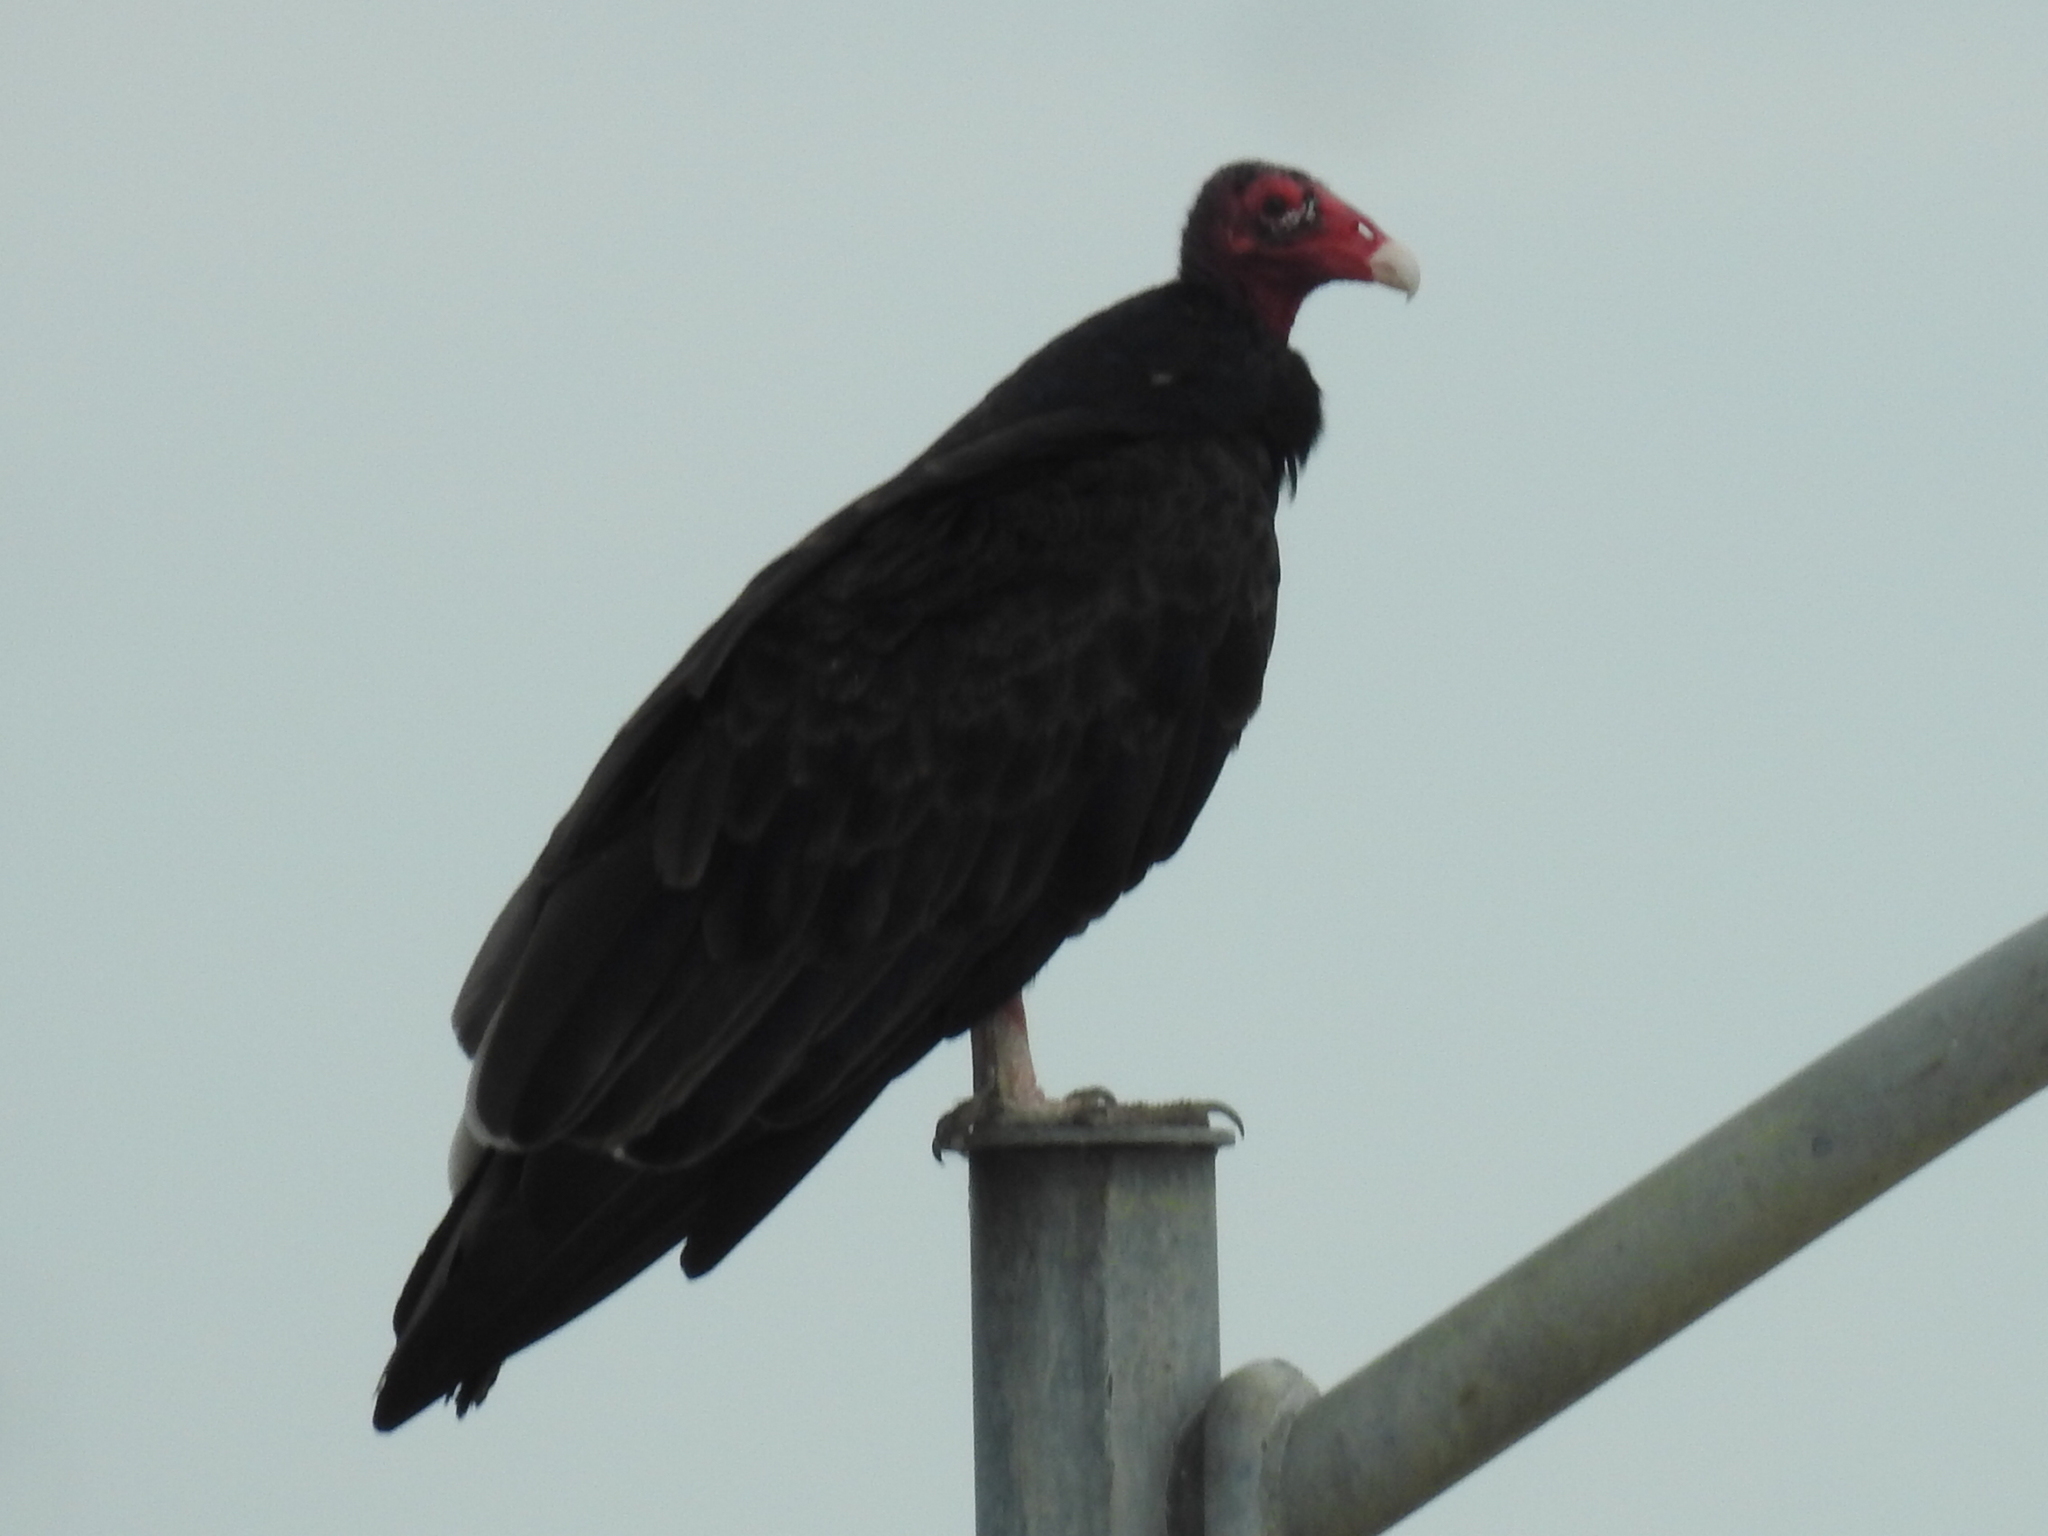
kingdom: Animalia
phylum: Chordata
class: Aves
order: Accipitriformes
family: Cathartidae
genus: Cathartes
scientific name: Cathartes aura
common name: Turkey vulture
